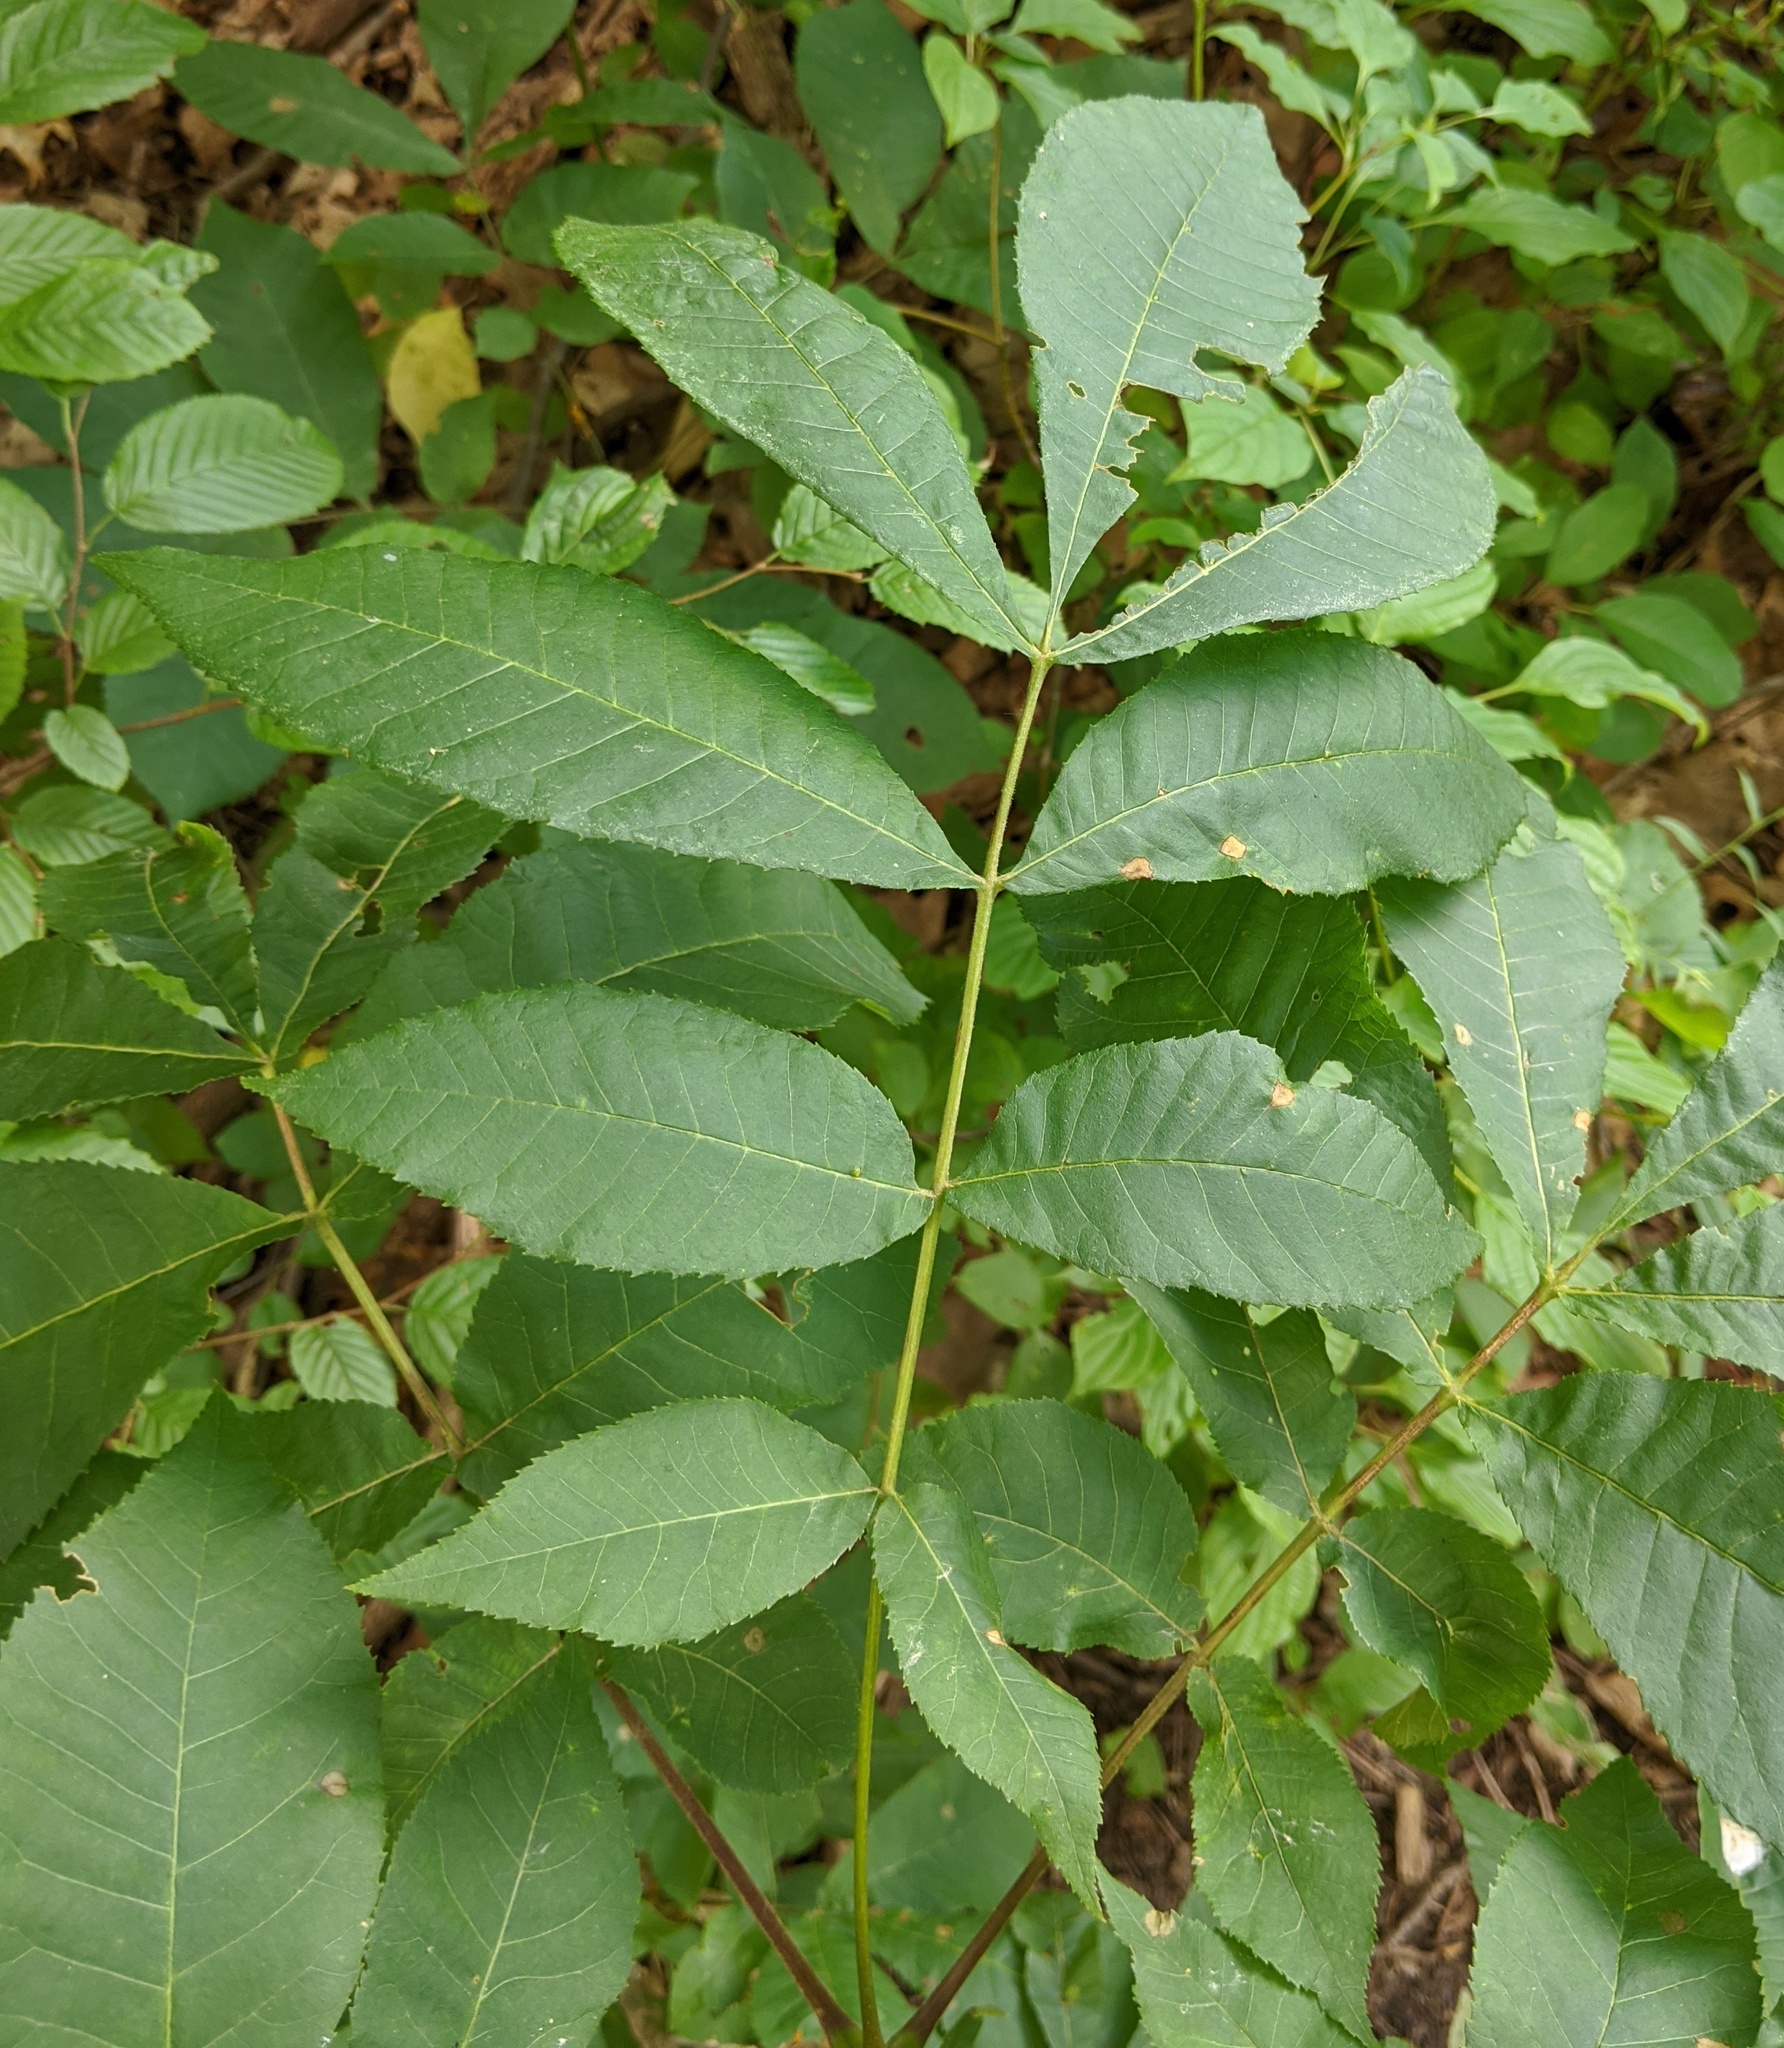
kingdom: Plantae
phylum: Tracheophyta
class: Magnoliopsida
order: Fagales
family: Juglandaceae
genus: Carya
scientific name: Carya cordiformis
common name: Bitternut hickory
